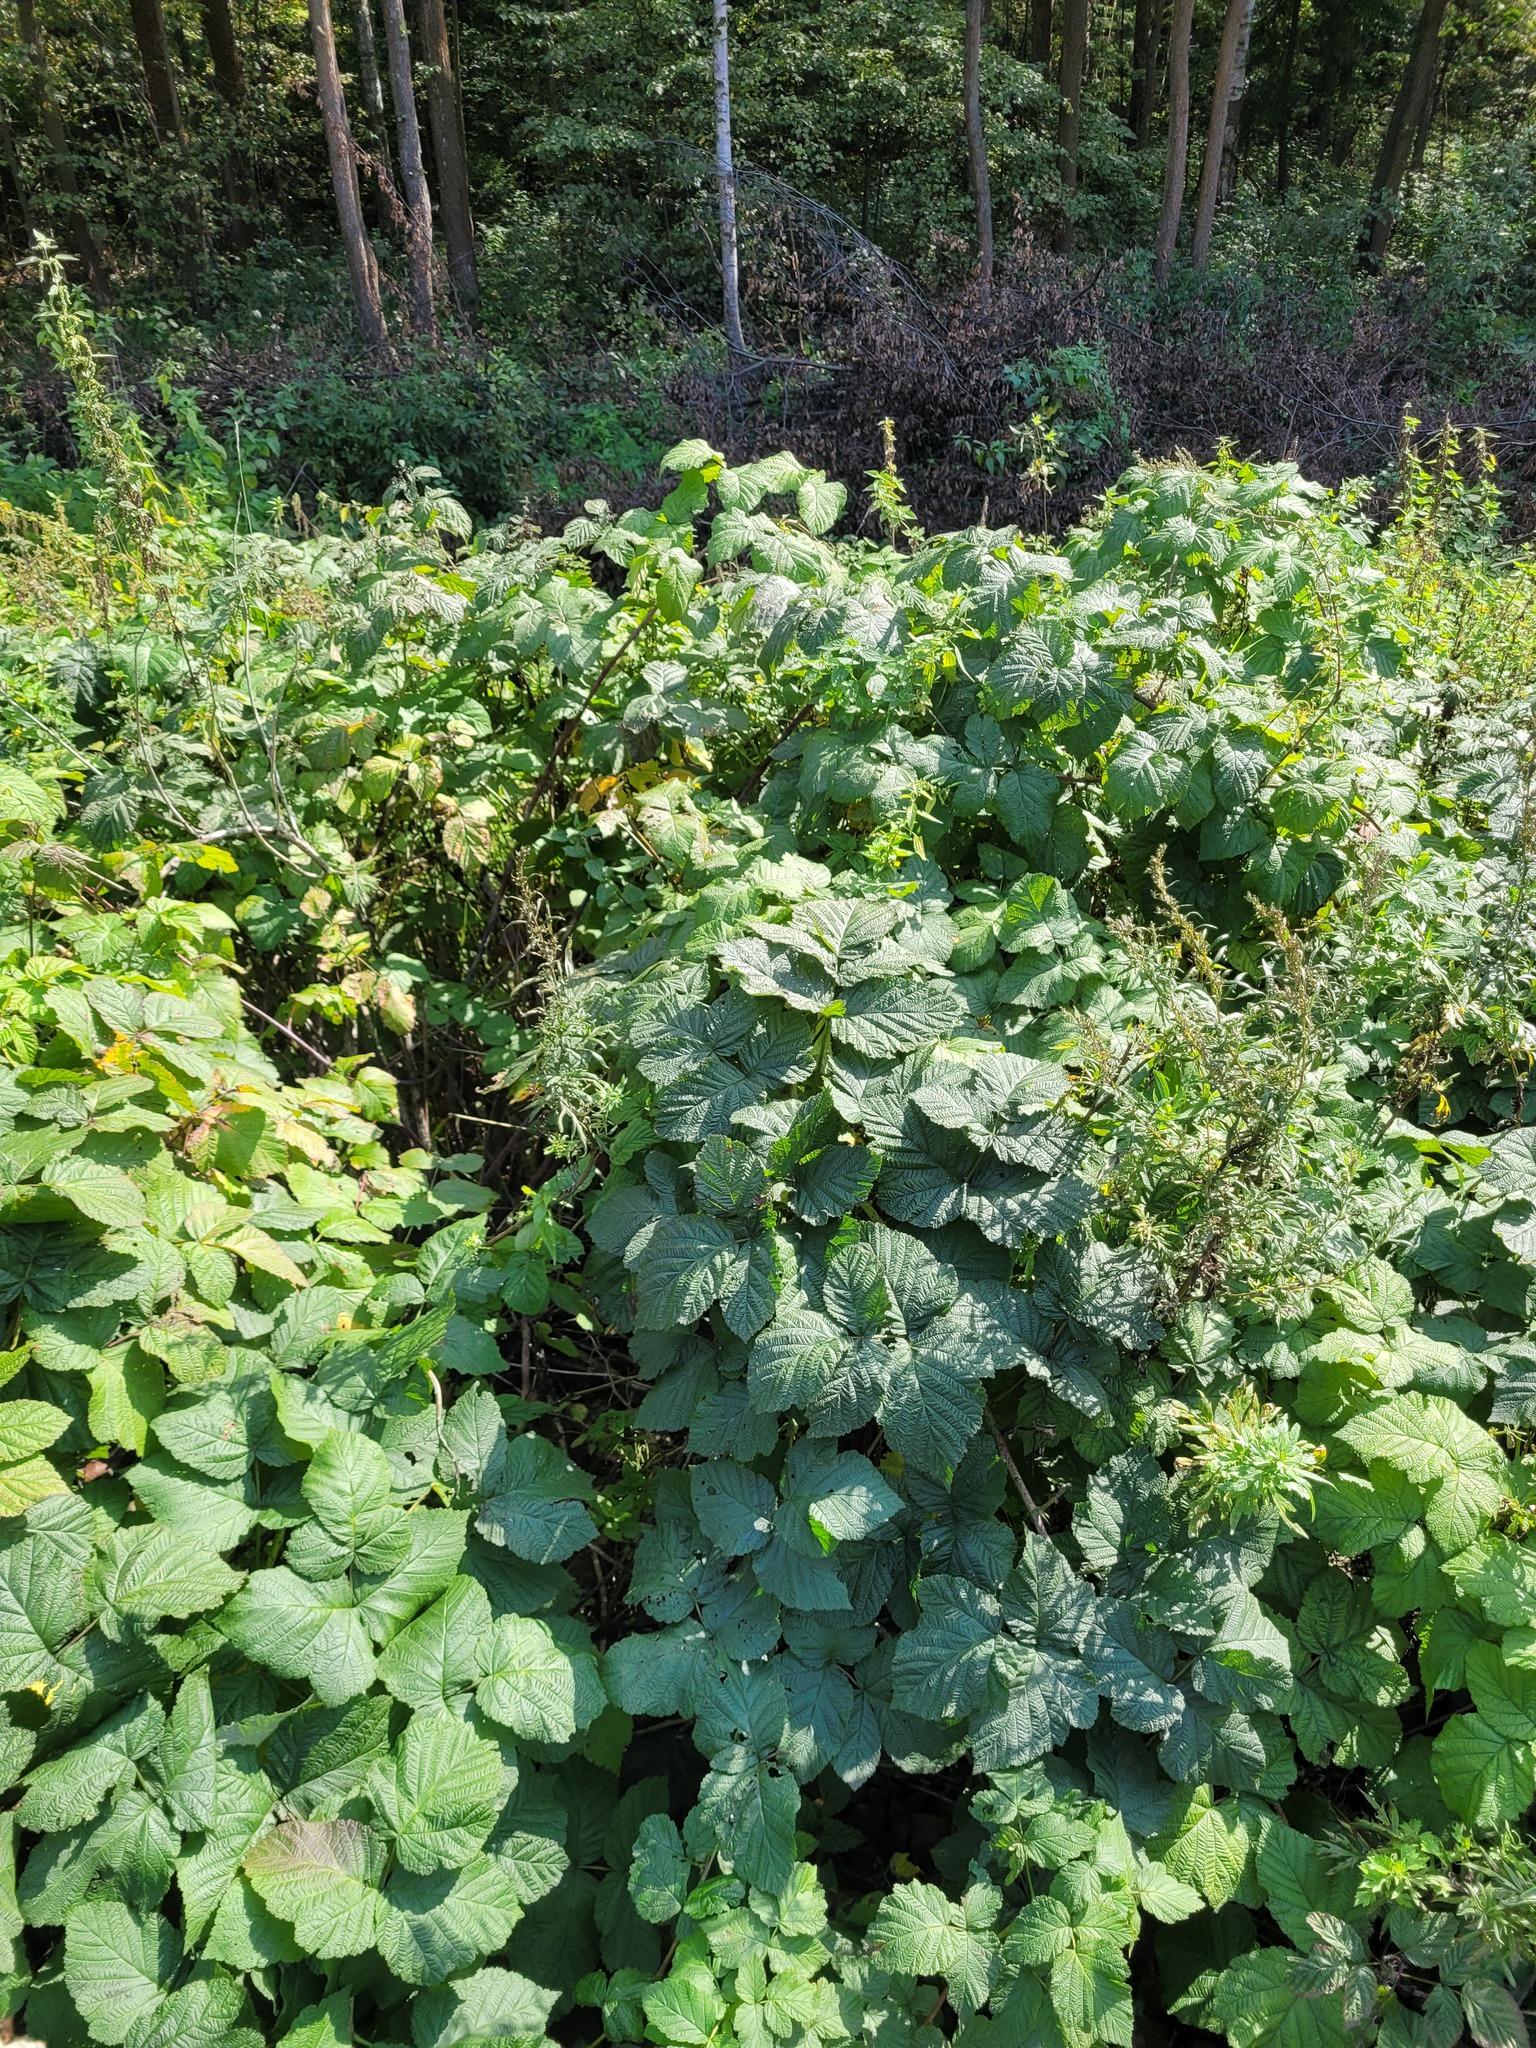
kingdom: Plantae
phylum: Tracheophyta
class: Magnoliopsida
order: Rosales
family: Rosaceae
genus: Rubus
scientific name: Rubus idaeoides
